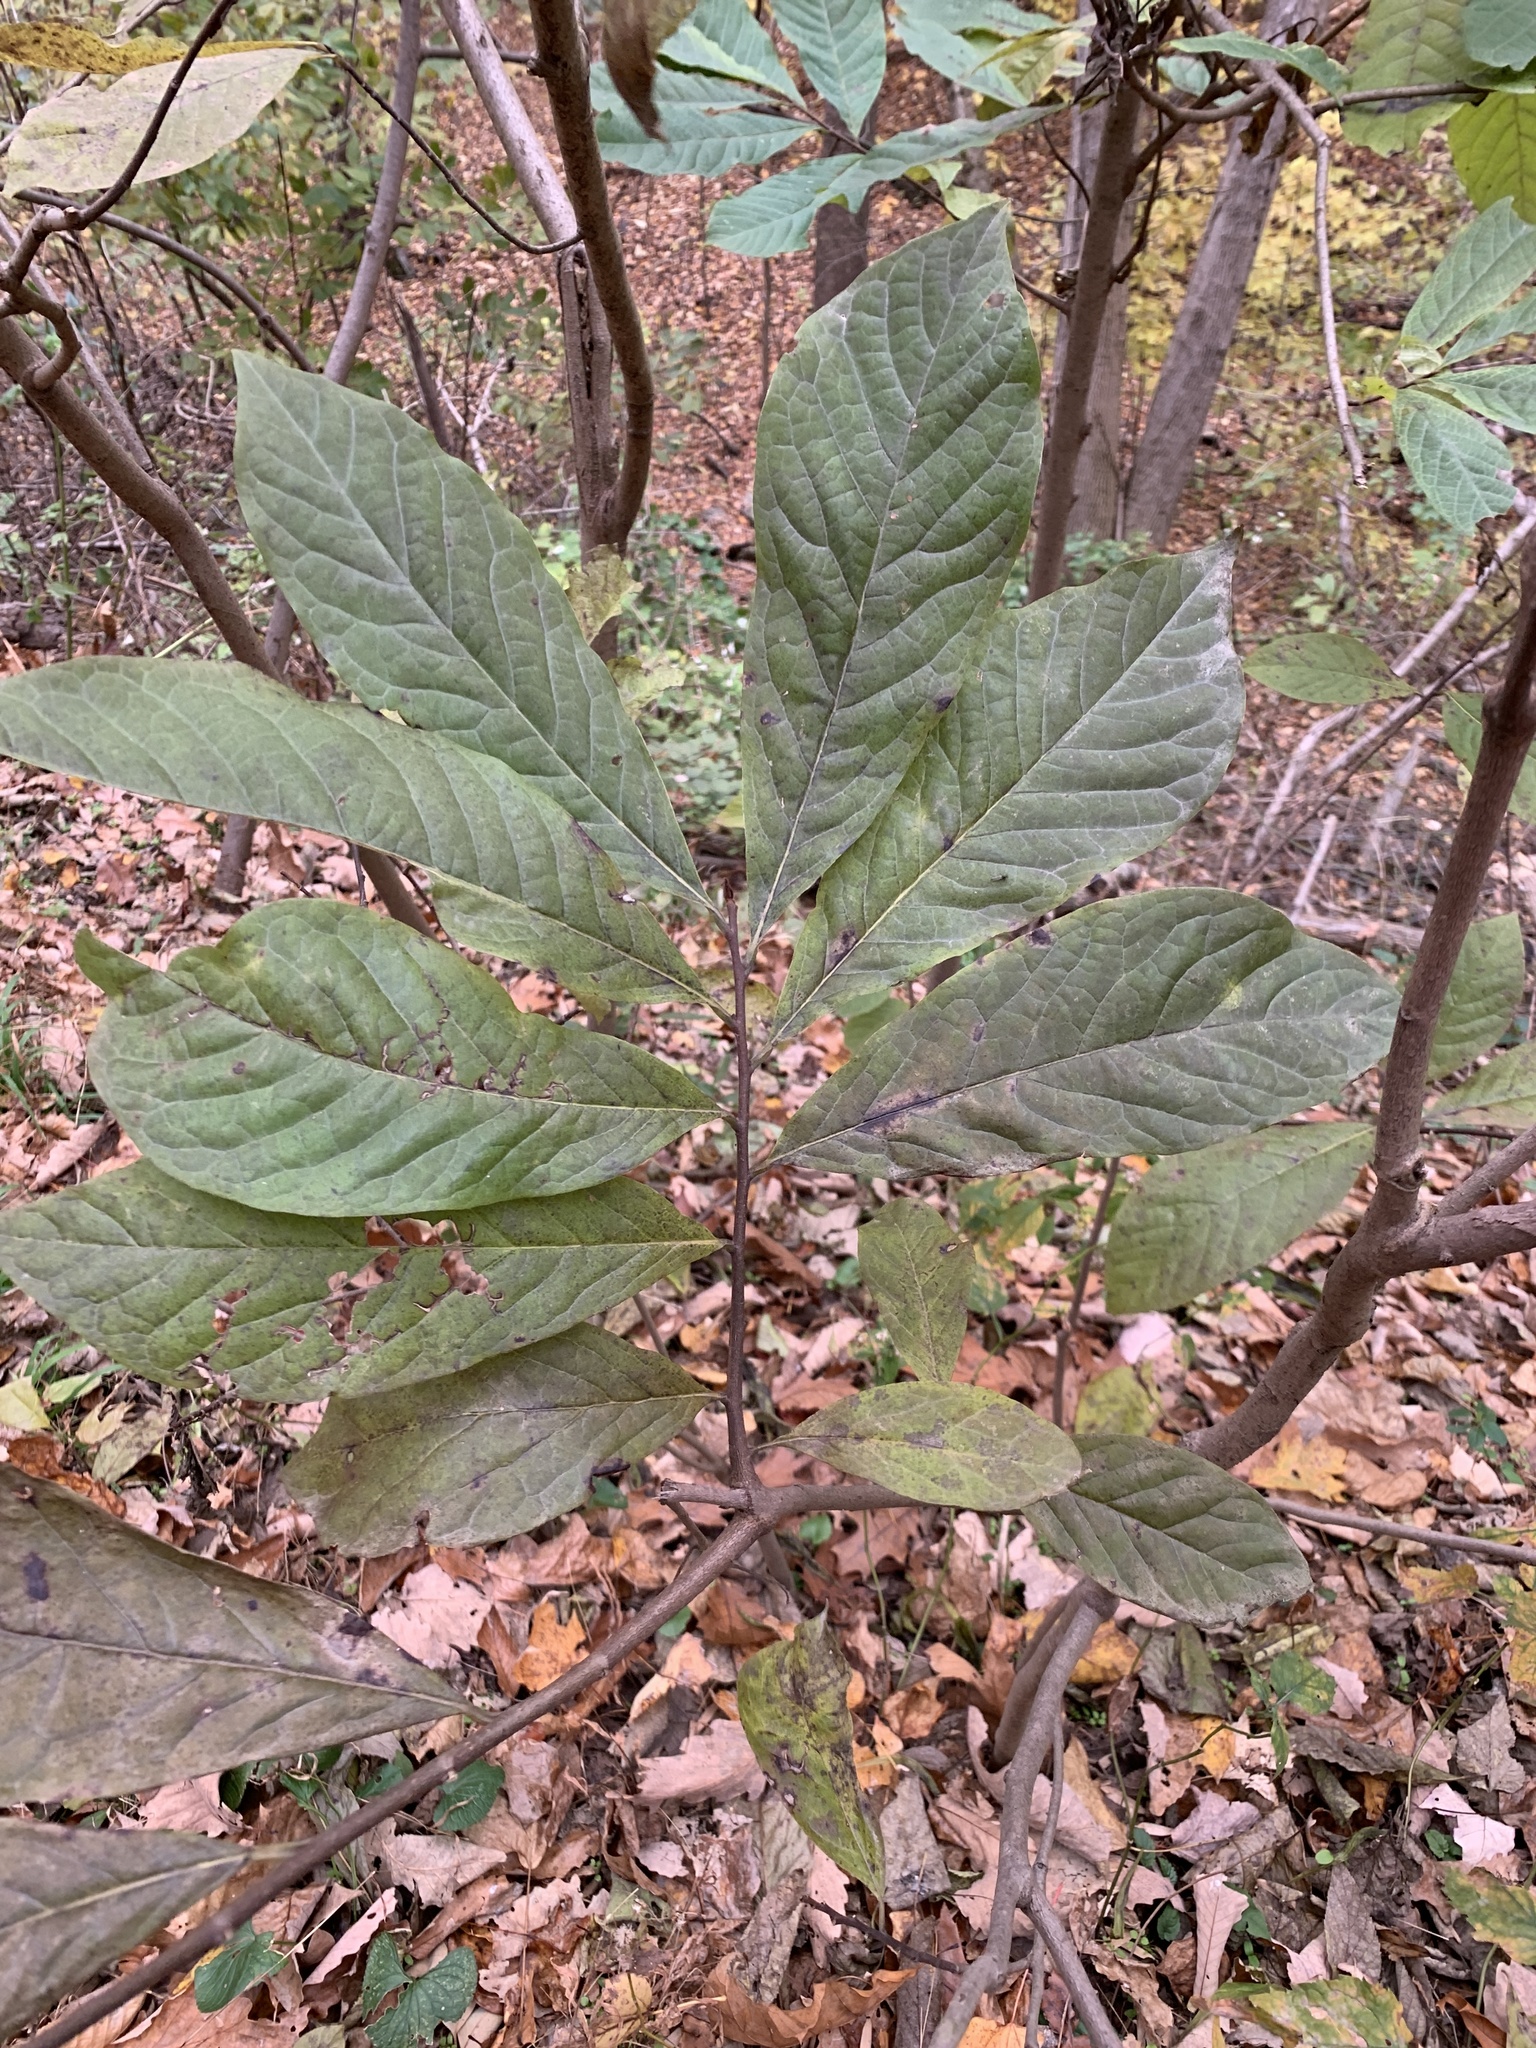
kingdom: Plantae
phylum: Tracheophyta
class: Magnoliopsida
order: Magnoliales
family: Annonaceae
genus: Asimina
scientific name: Asimina triloba
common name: Dog-banana
